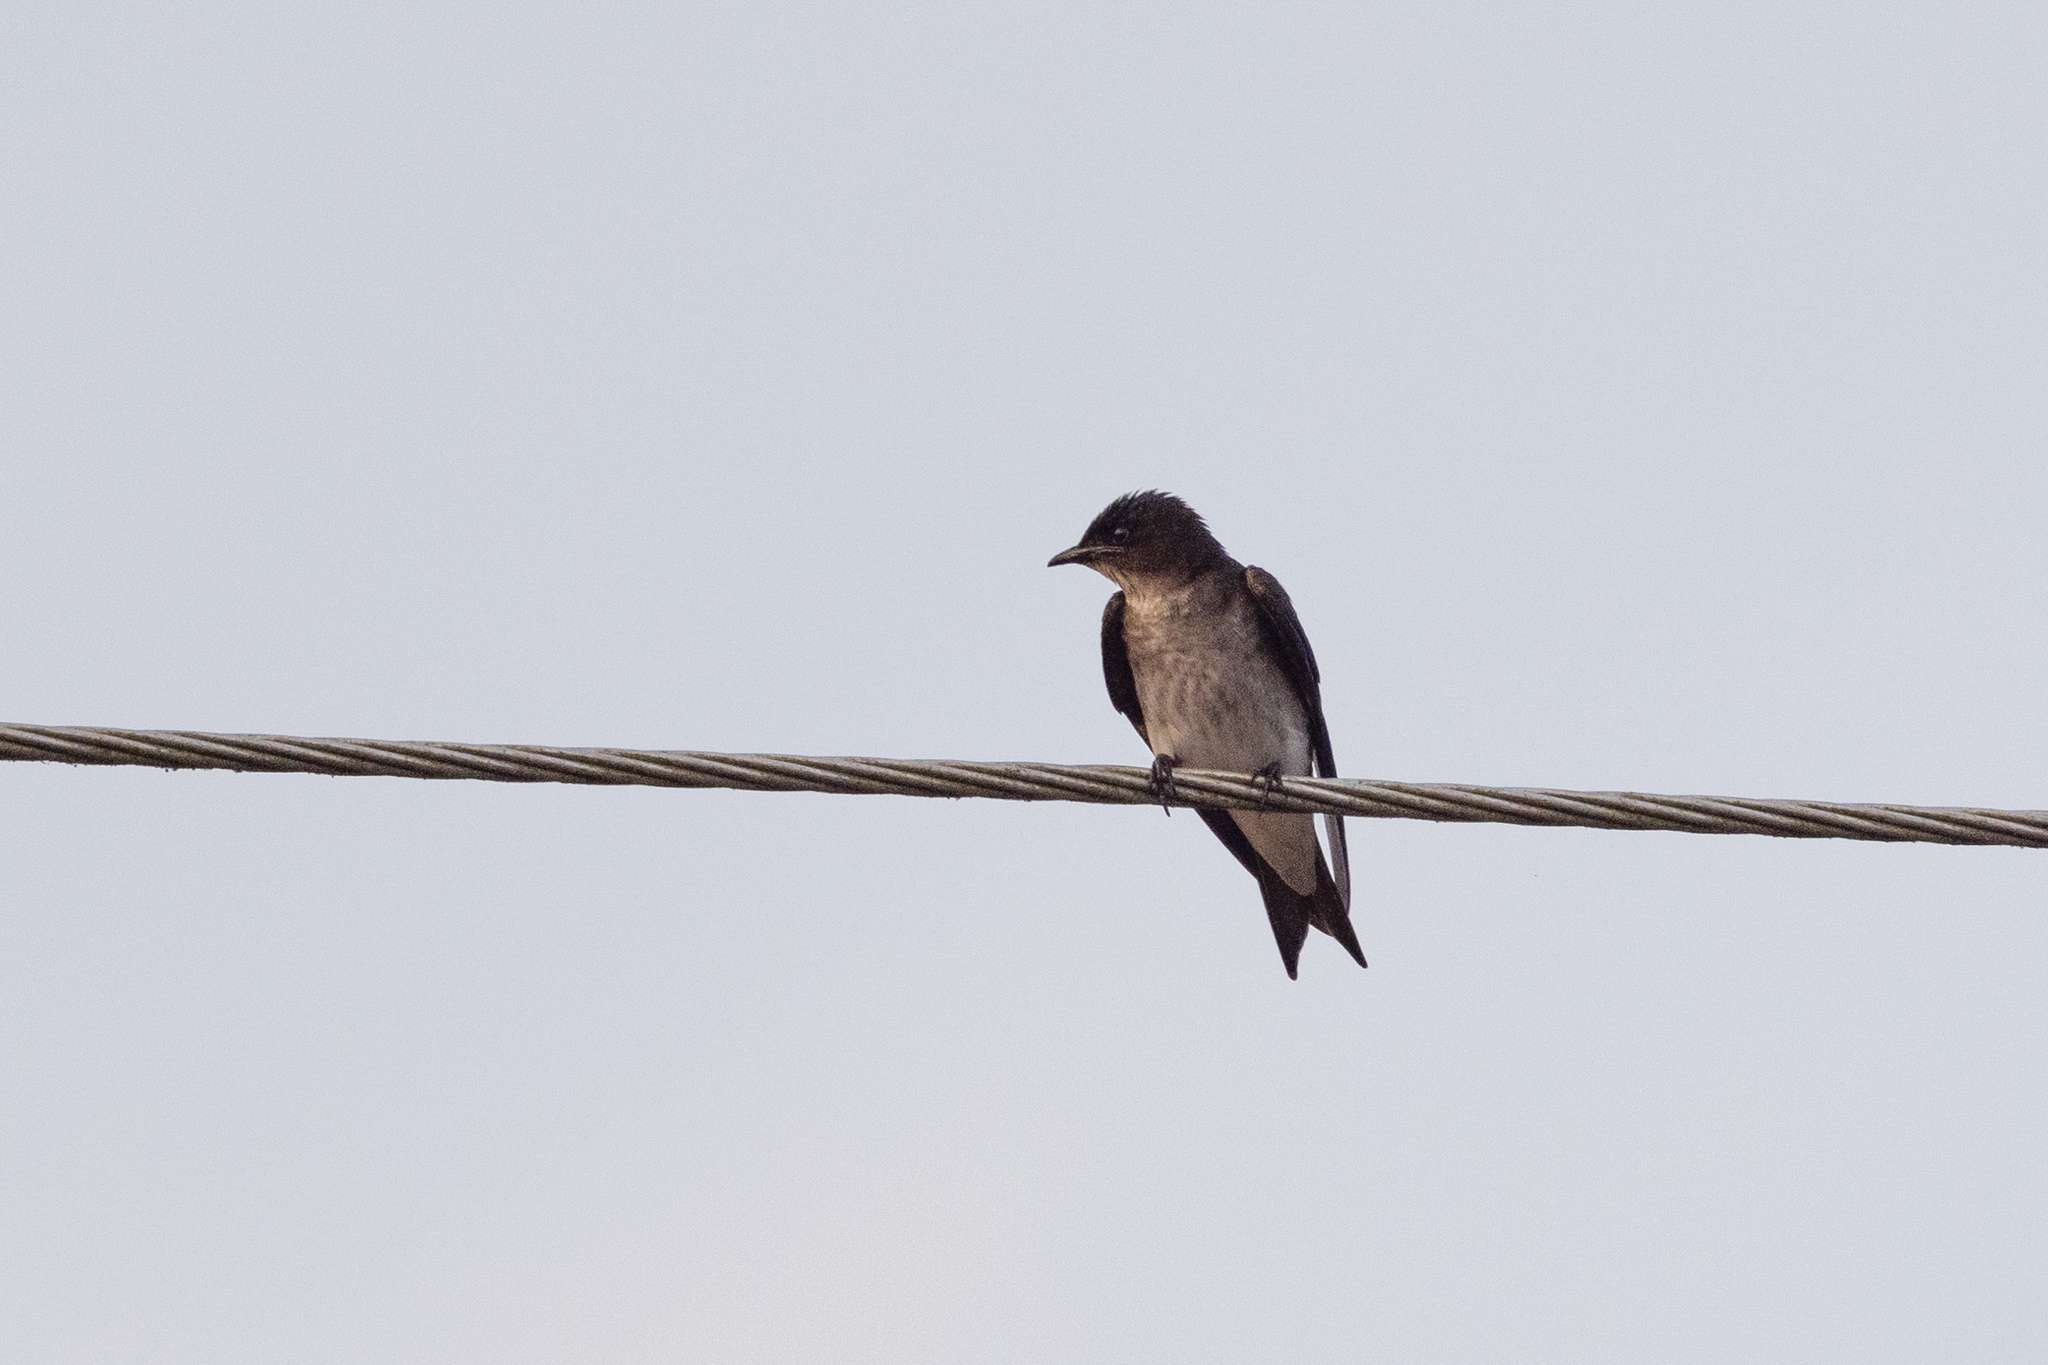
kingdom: Animalia
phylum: Chordata
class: Aves
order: Passeriformes
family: Hirundinidae
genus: Progne
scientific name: Progne chalybea
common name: Grey-breasted martin
